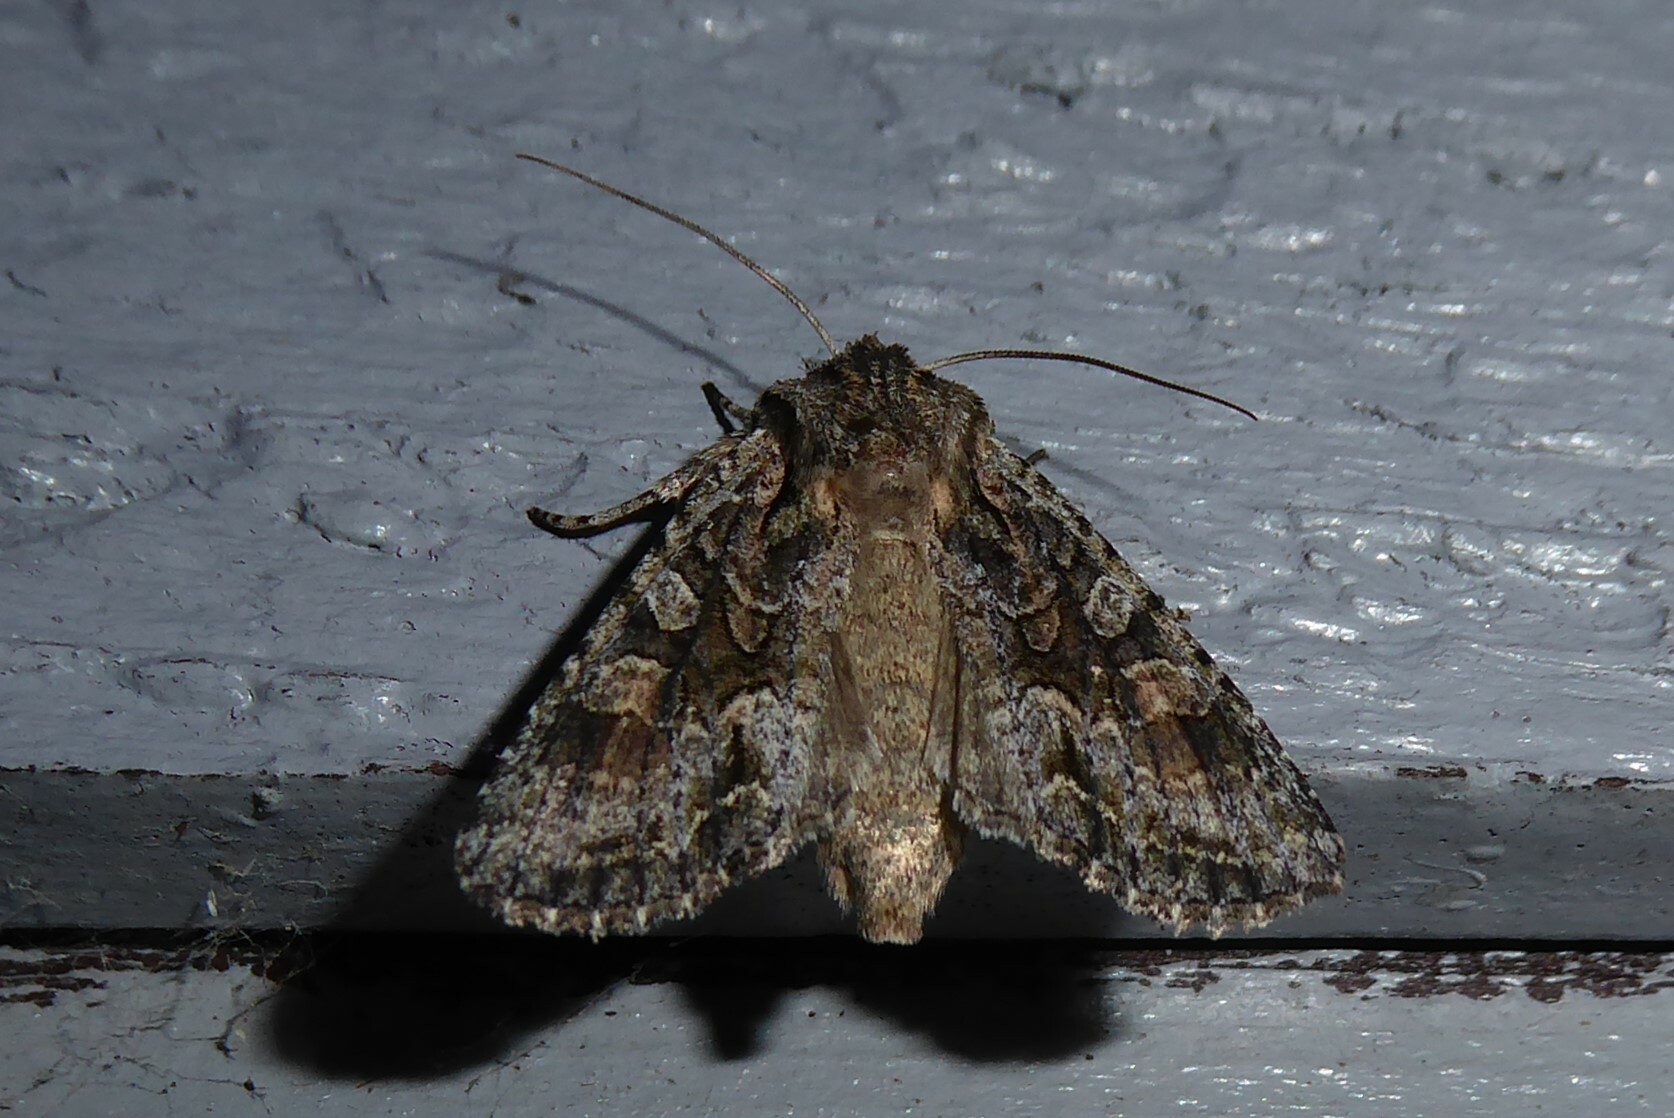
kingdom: Animalia
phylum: Arthropoda
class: Insecta
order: Lepidoptera
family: Noctuidae
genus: Ichneutica
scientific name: Ichneutica mutans
